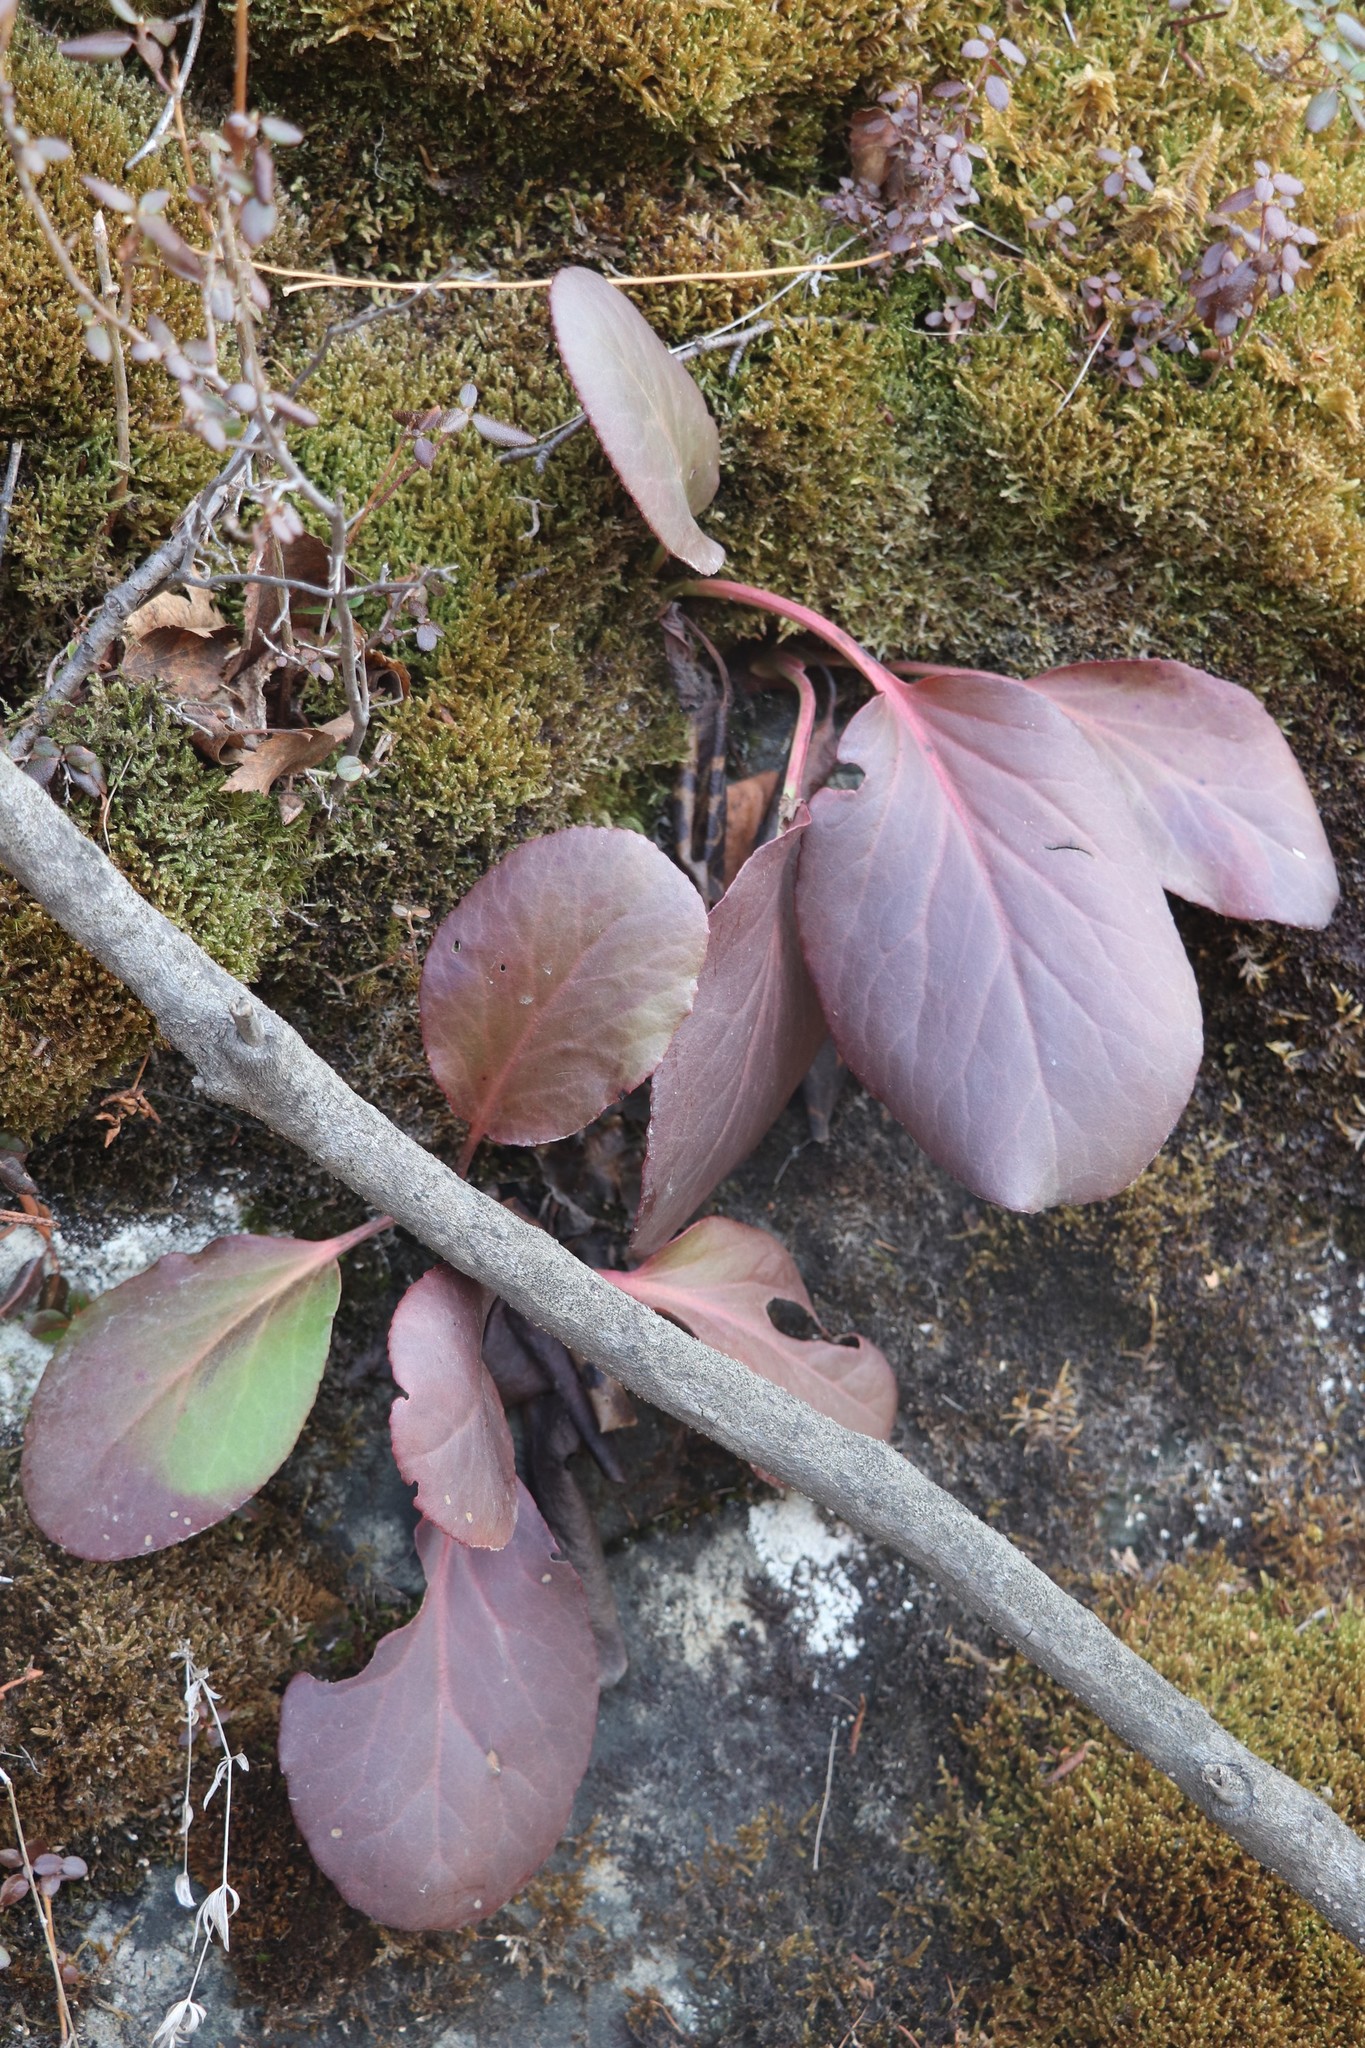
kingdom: Plantae
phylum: Tracheophyta
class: Magnoliopsida
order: Saxifragales
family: Saxifragaceae
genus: Bergenia
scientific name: Bergenia crassifolia
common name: Elephant-ears
